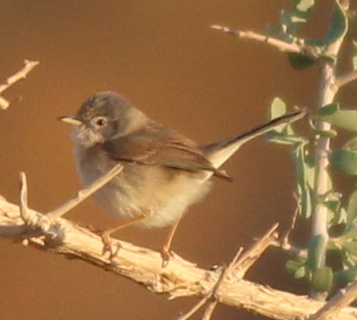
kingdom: Animalia
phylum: Chordata
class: Aves
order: Passeriformes
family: Sylviidae
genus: Sylvia
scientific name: Sylvia deserticola
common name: Tristram's warbler
